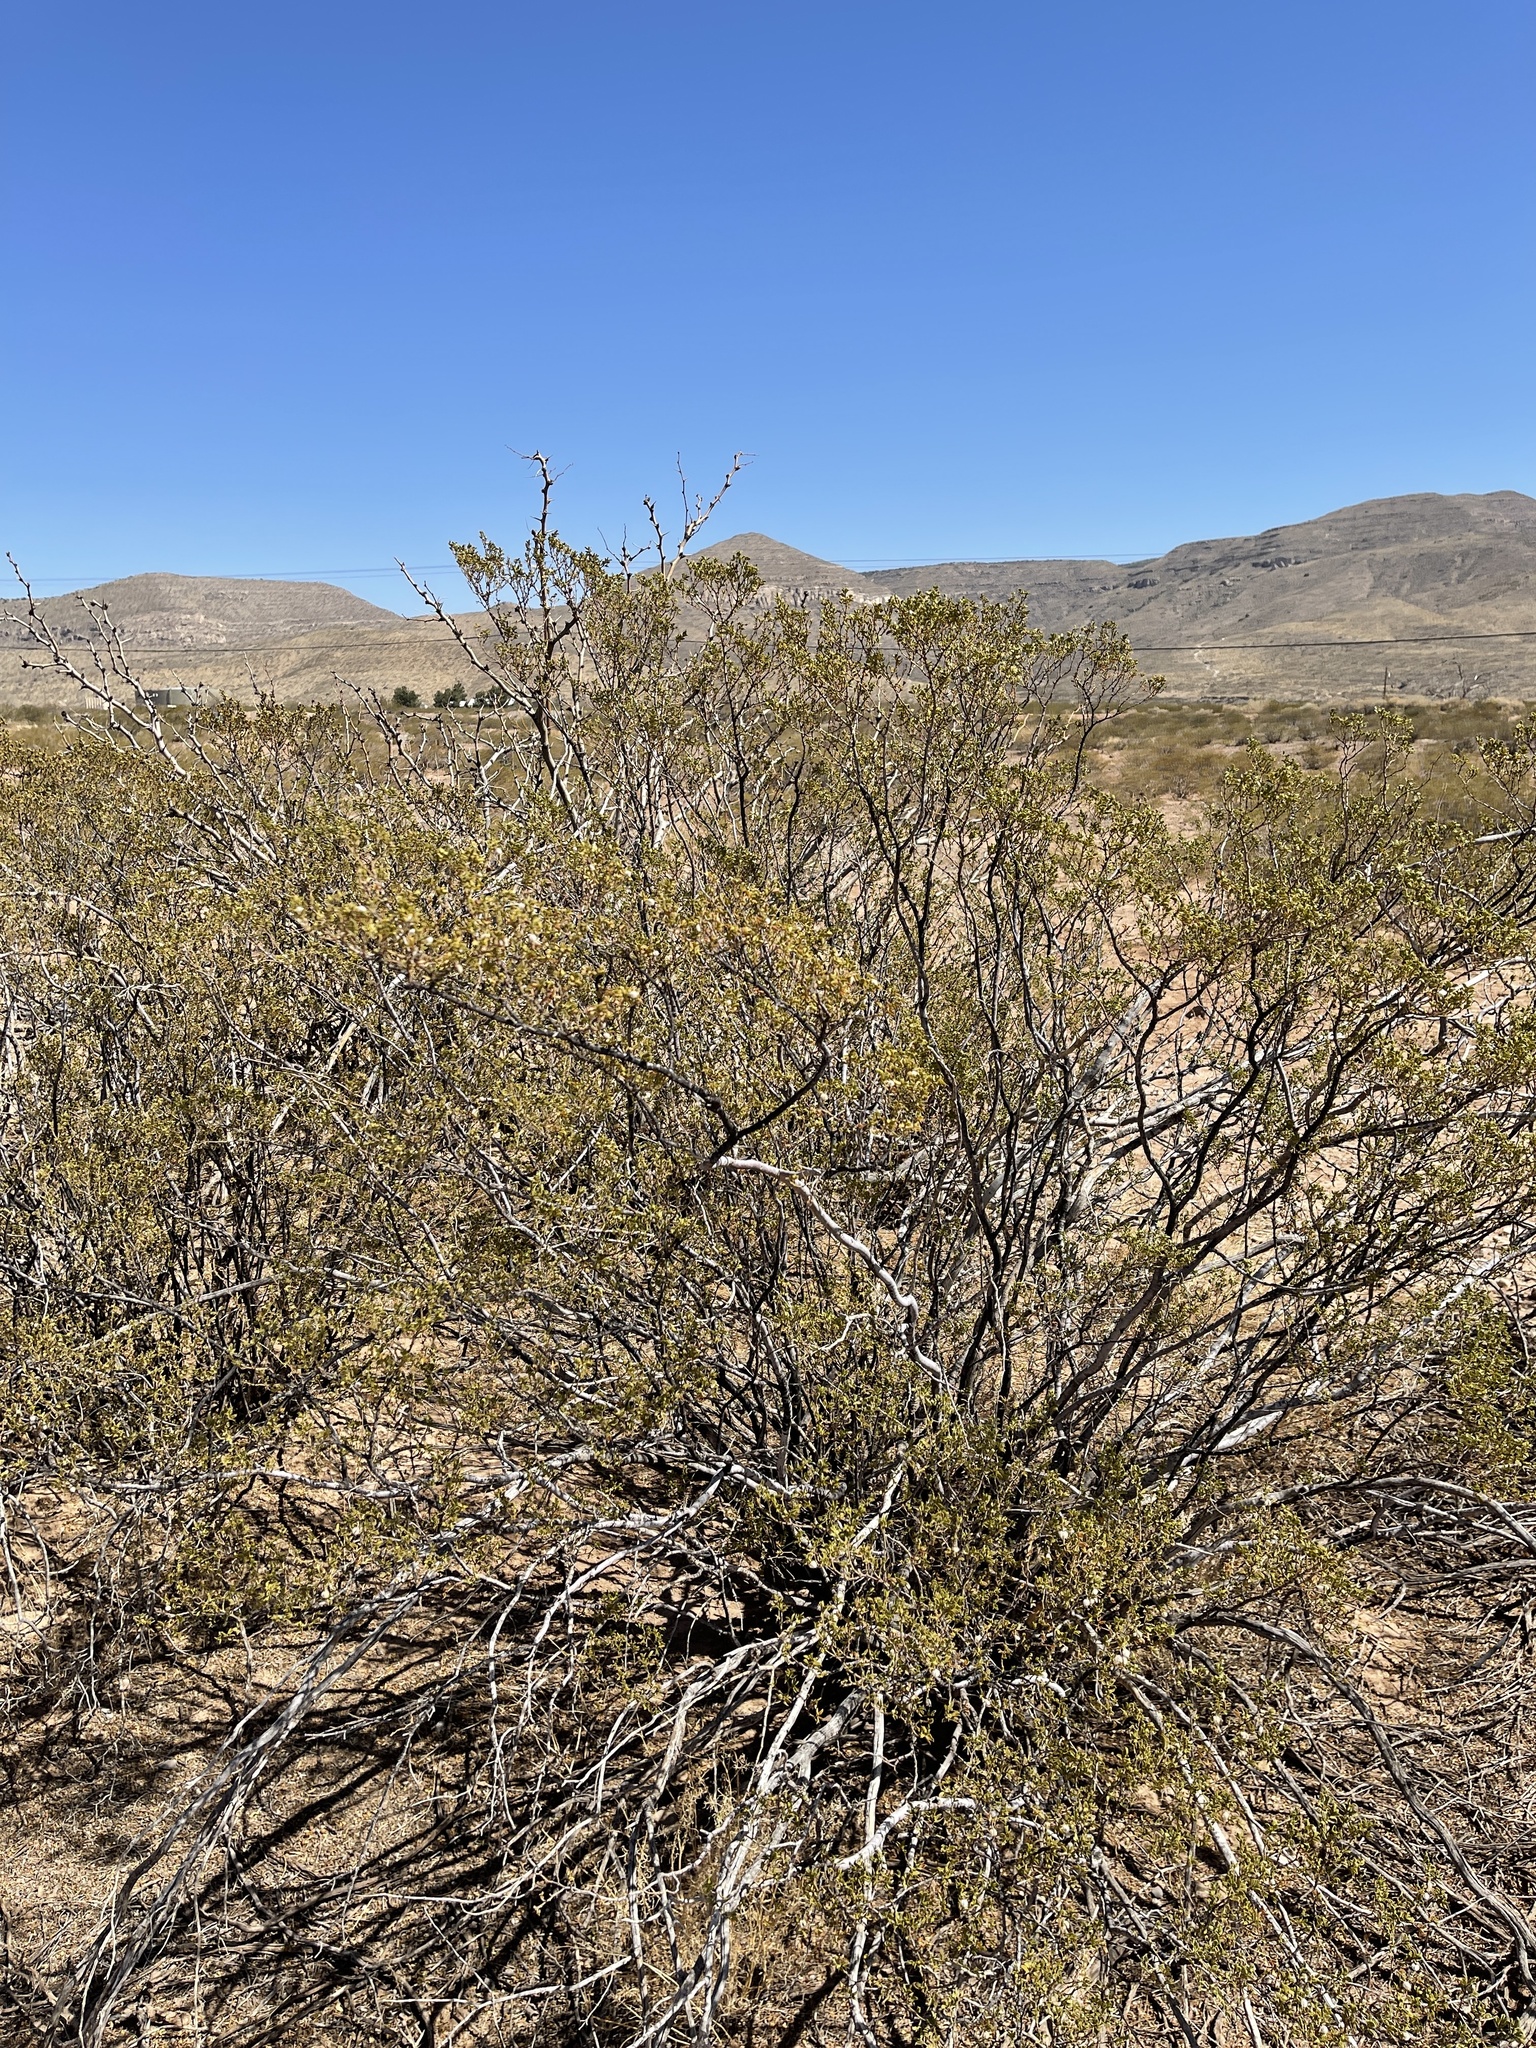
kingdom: Plantae
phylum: Tracheophyta
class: Magnoliopsida
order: Zygophyllales
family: Zygophyllaceae
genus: Larrea
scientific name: Larrea tridentata
